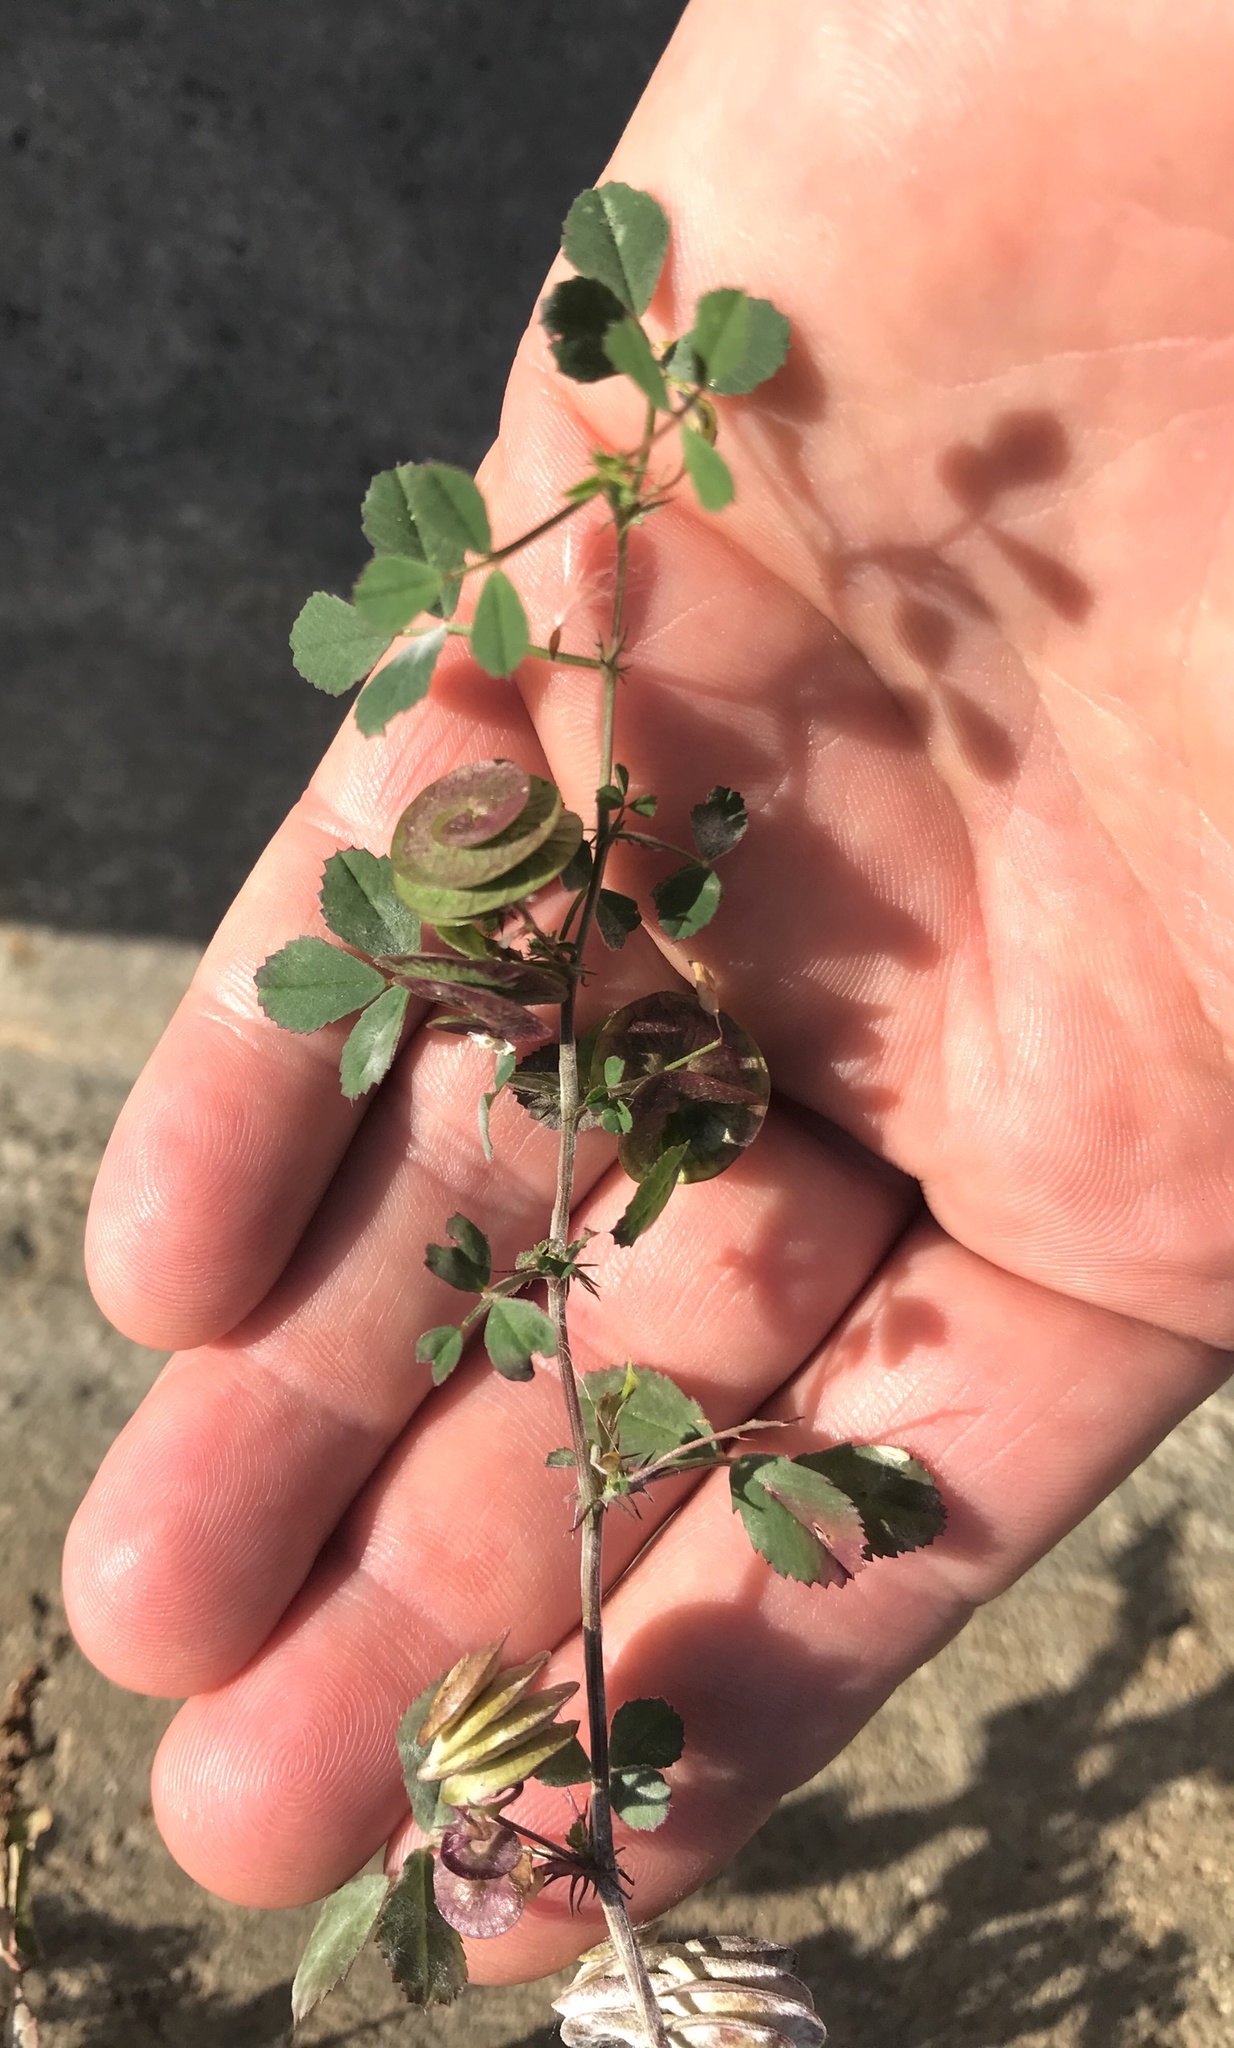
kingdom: Plantae
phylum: Tracheophyta
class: Magnoliopsida
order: Fabales
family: Fabaceae
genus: Medicago
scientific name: Medicago orbicularis
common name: Button medick
